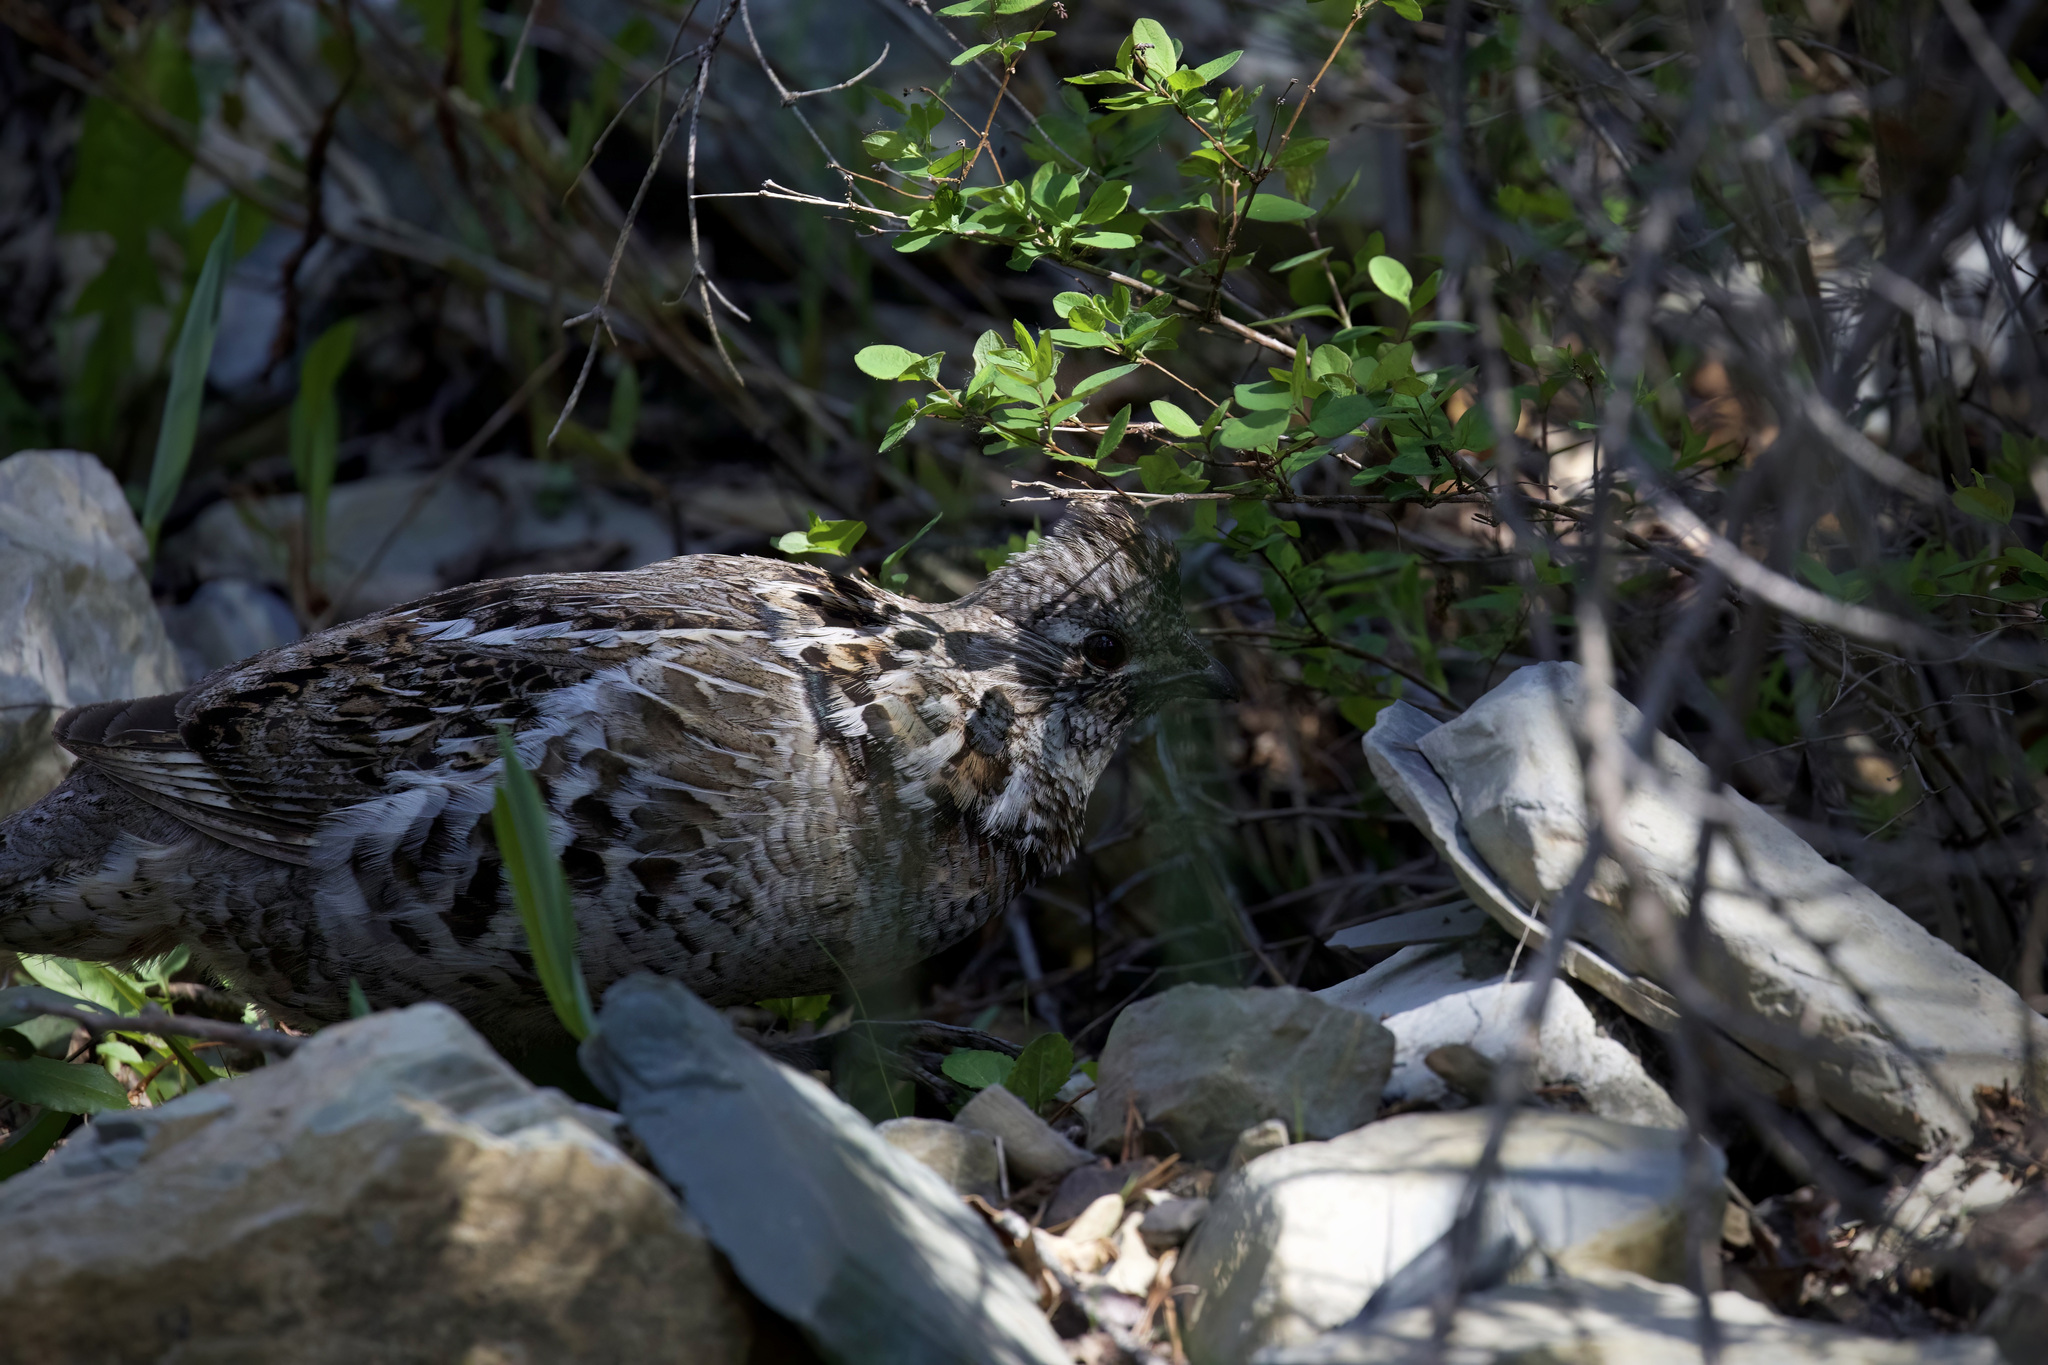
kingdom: Animalia
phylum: Chordata
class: Aves
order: Galliformes
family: Phasianidae
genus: Bonasa
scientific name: Bonasa umbellus
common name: Ruffed grouse
